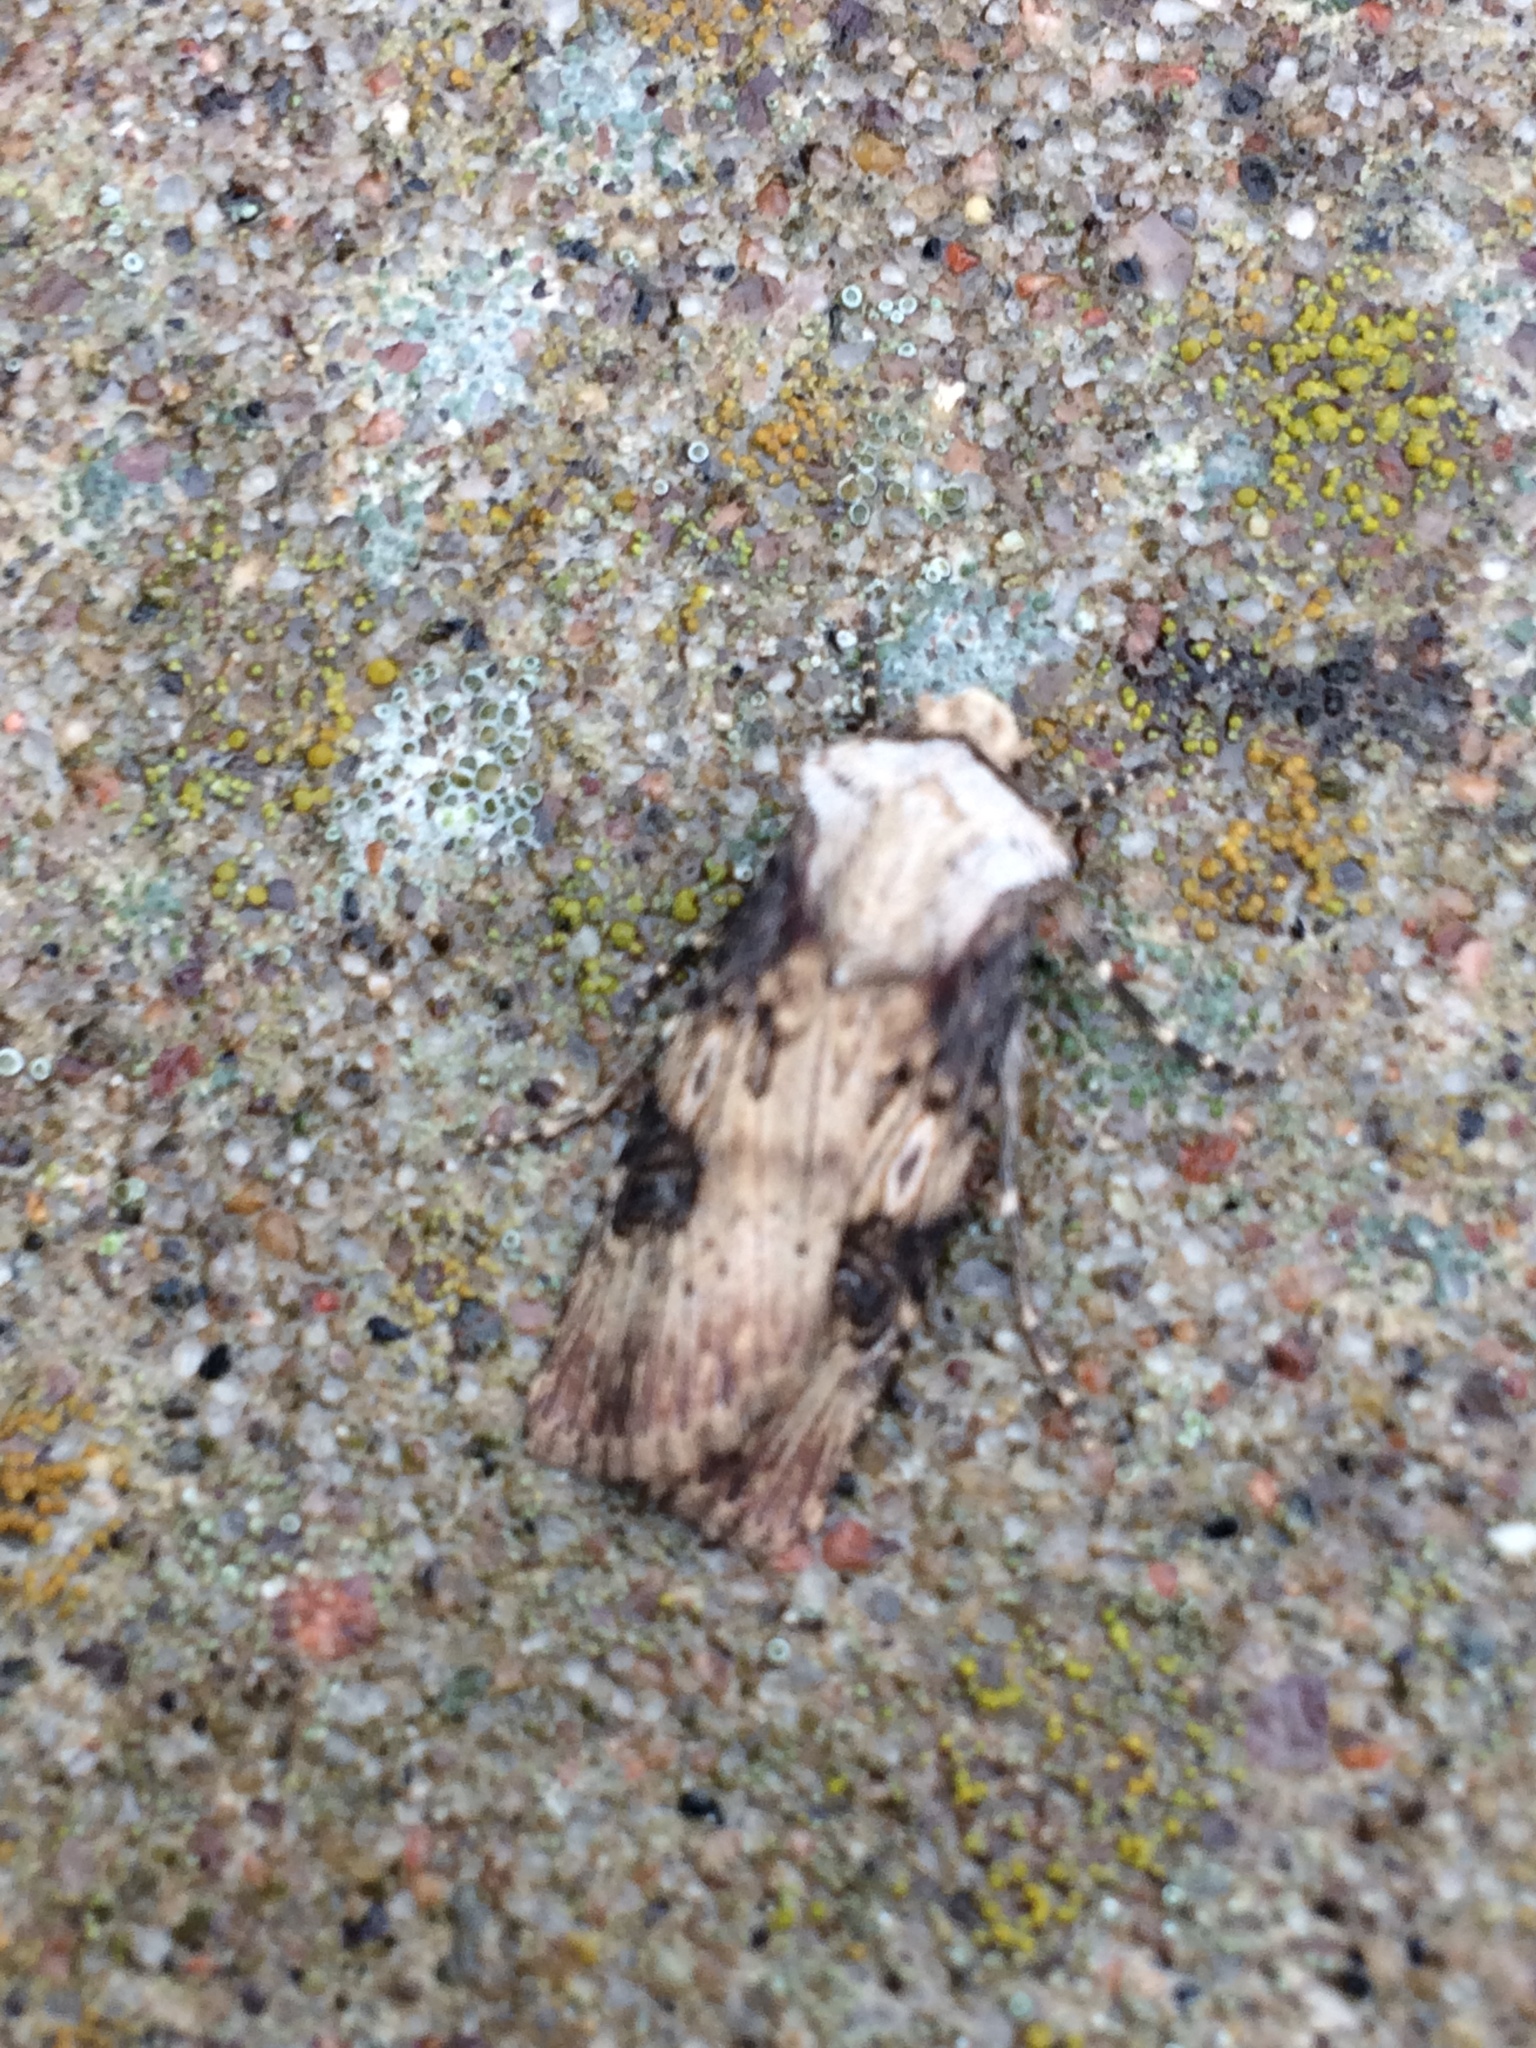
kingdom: Animalia
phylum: Arthropoda
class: Insecta
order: Lepidoptera
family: Noctuidae
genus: Agrotis
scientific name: Agrotis puta
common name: Shuttle-shaped dart
